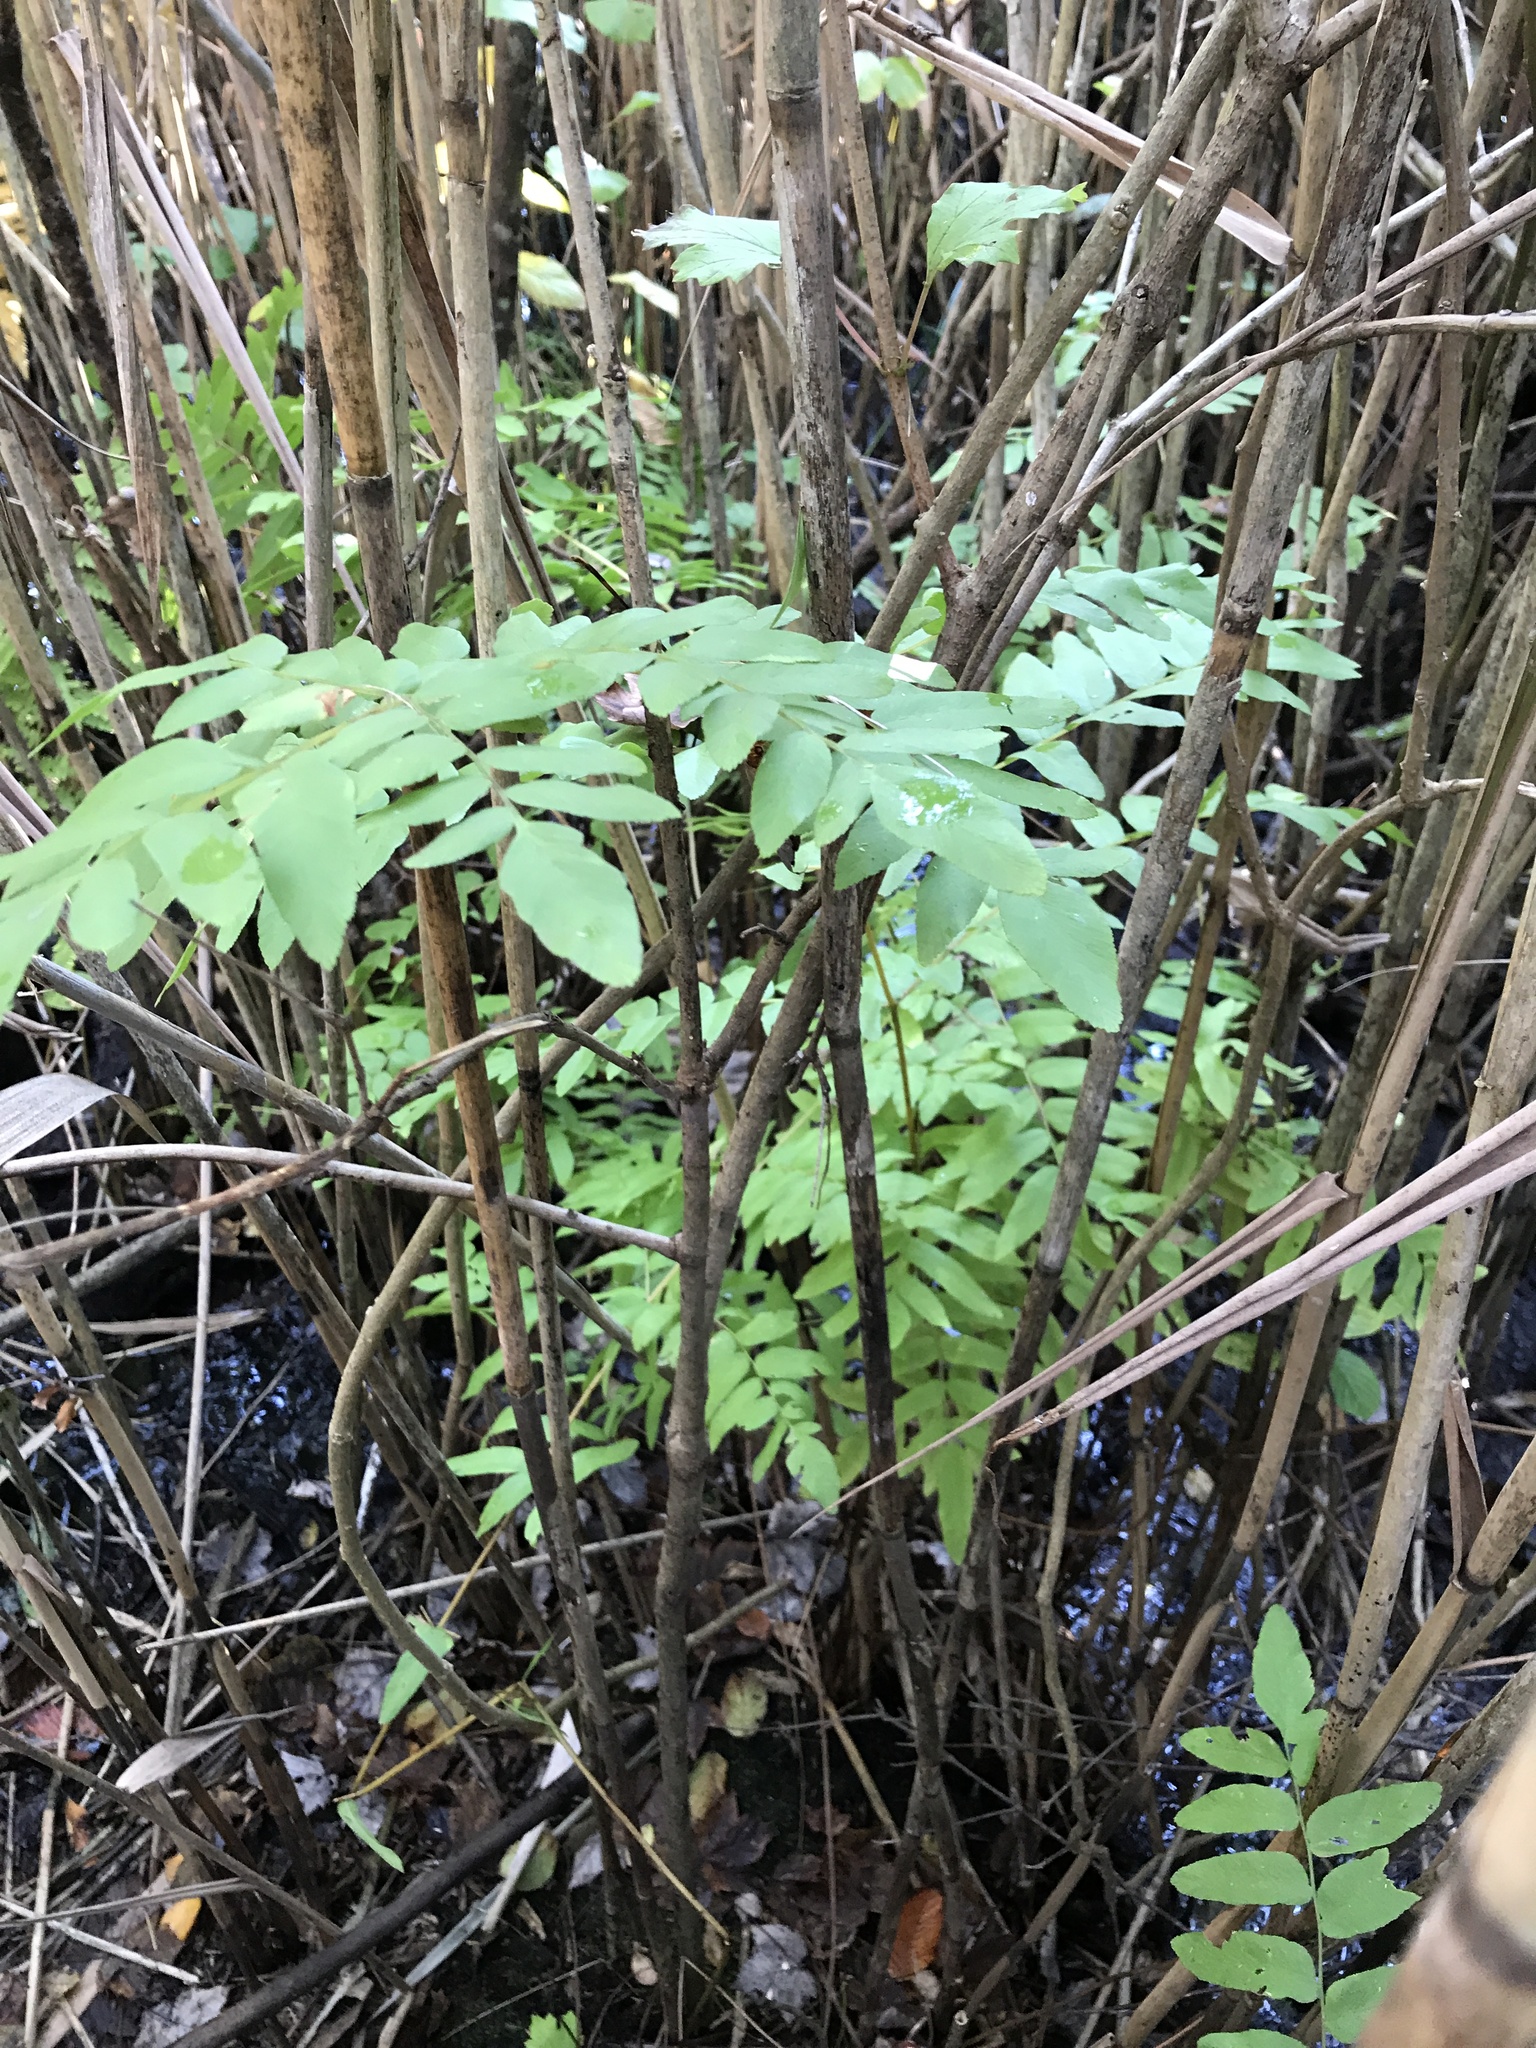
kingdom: Plantae
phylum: Tracheophyta
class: Polypodiopsida
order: Osmundales
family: Osmundaceae
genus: Osmunda
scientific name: Osmunda spectabilis
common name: American royal fern
